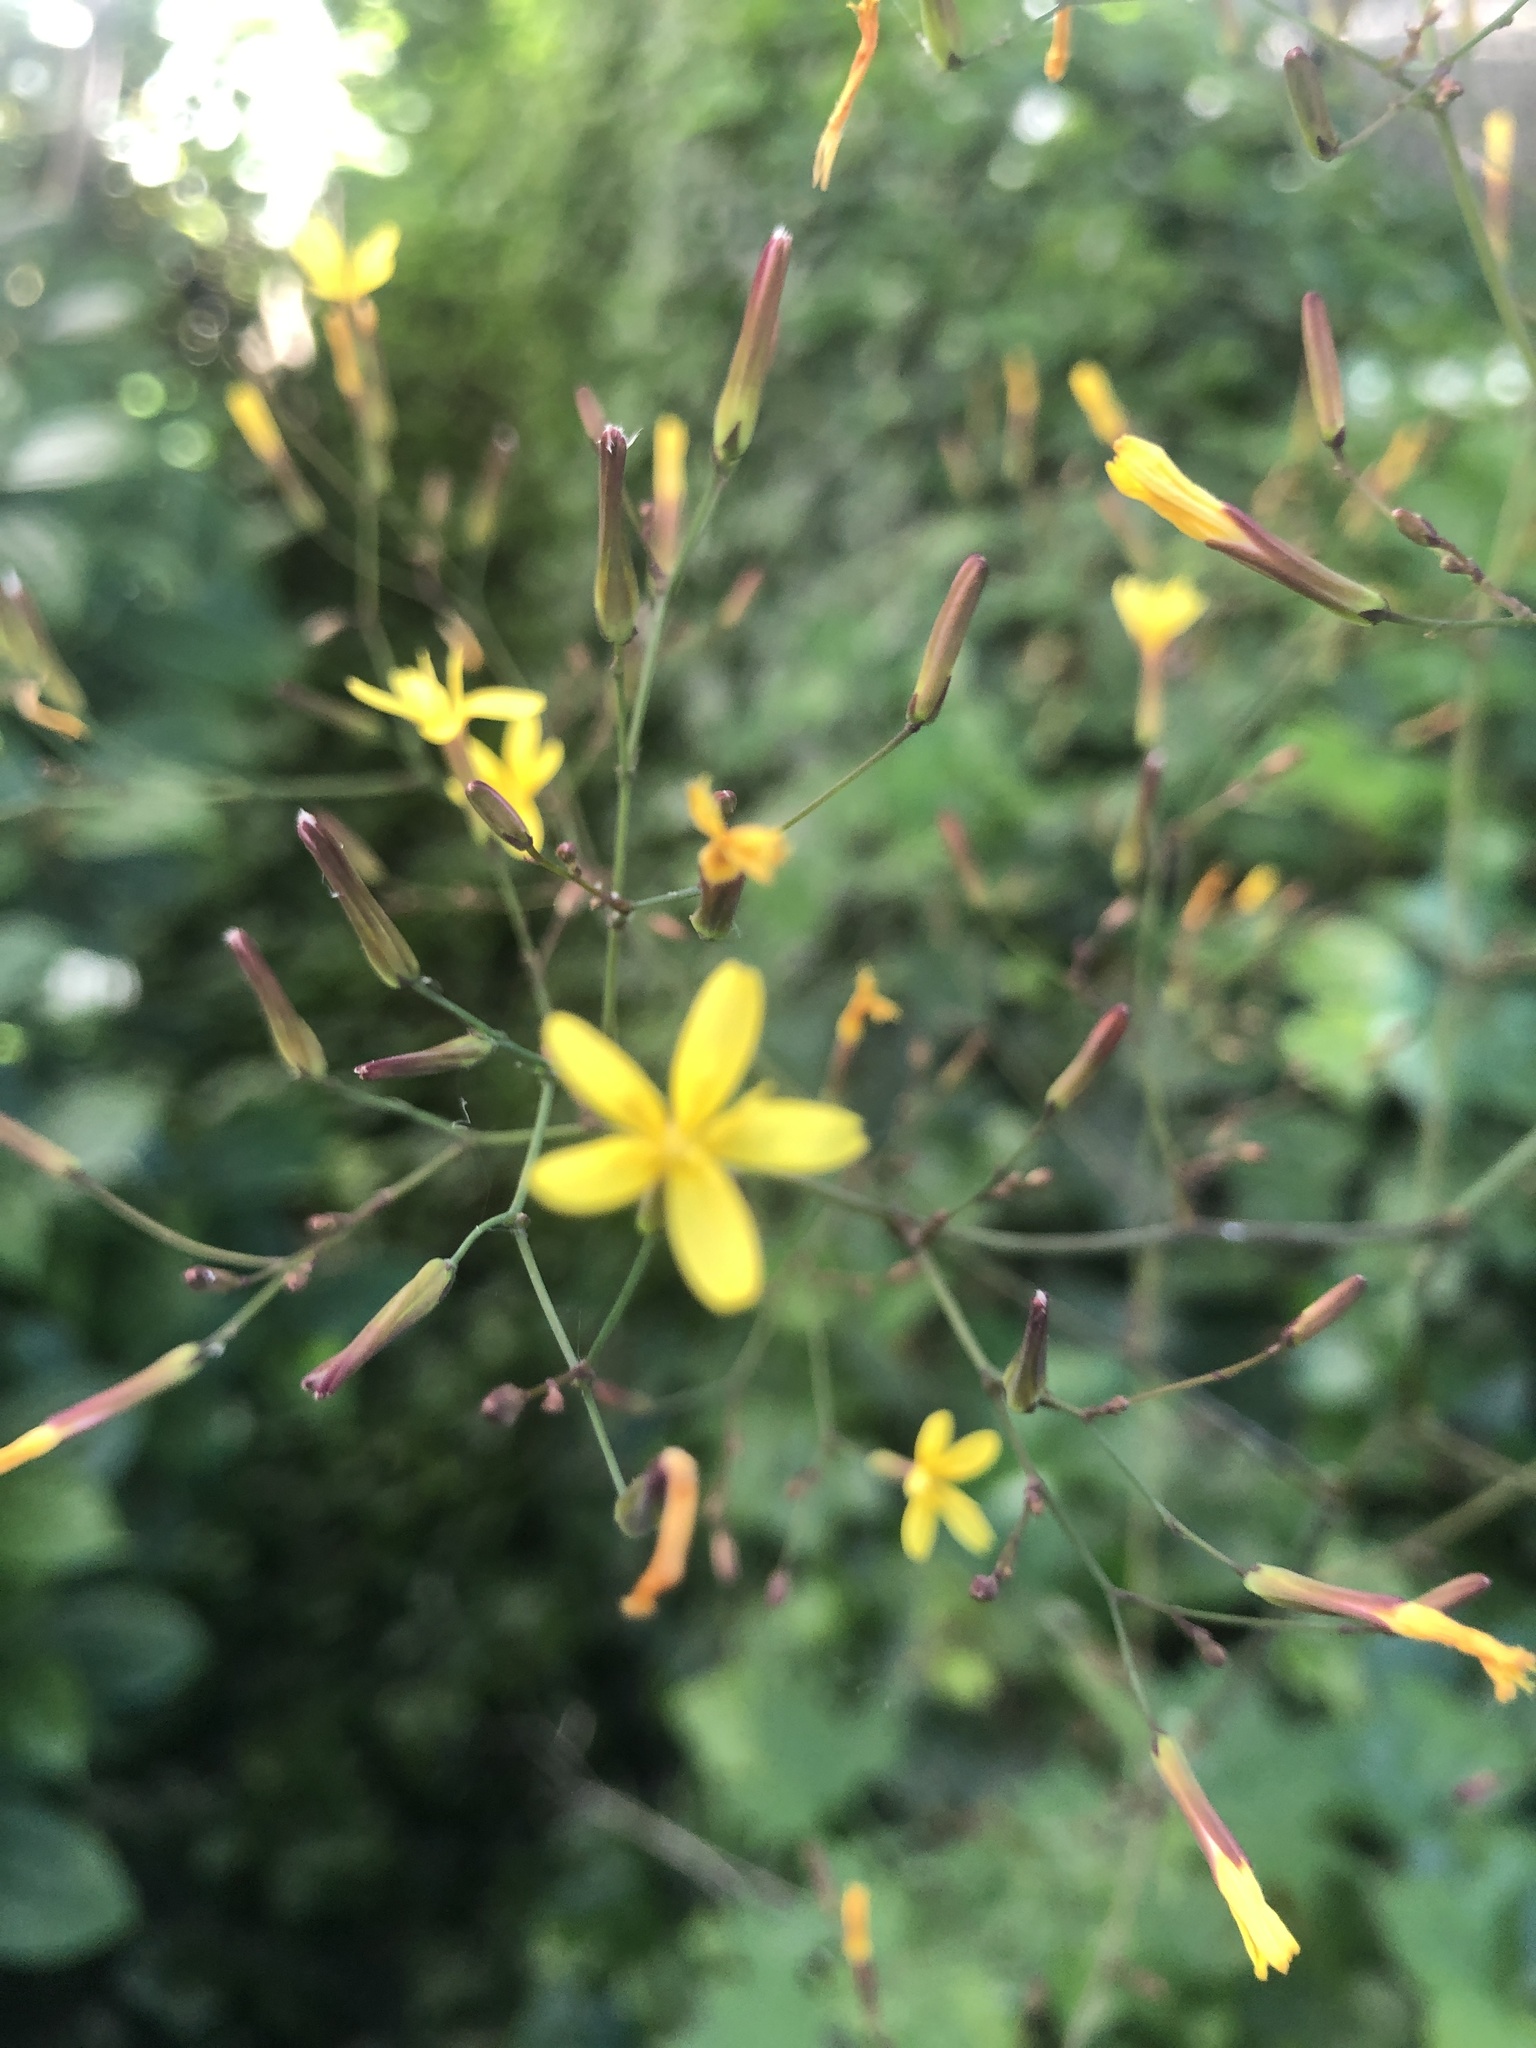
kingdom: Plantae
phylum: Tracheophyta
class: Magnoliopsida
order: Asterales
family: Asteraceae
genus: Mycelis
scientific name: Mycelis muralis
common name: Wall lettuce
